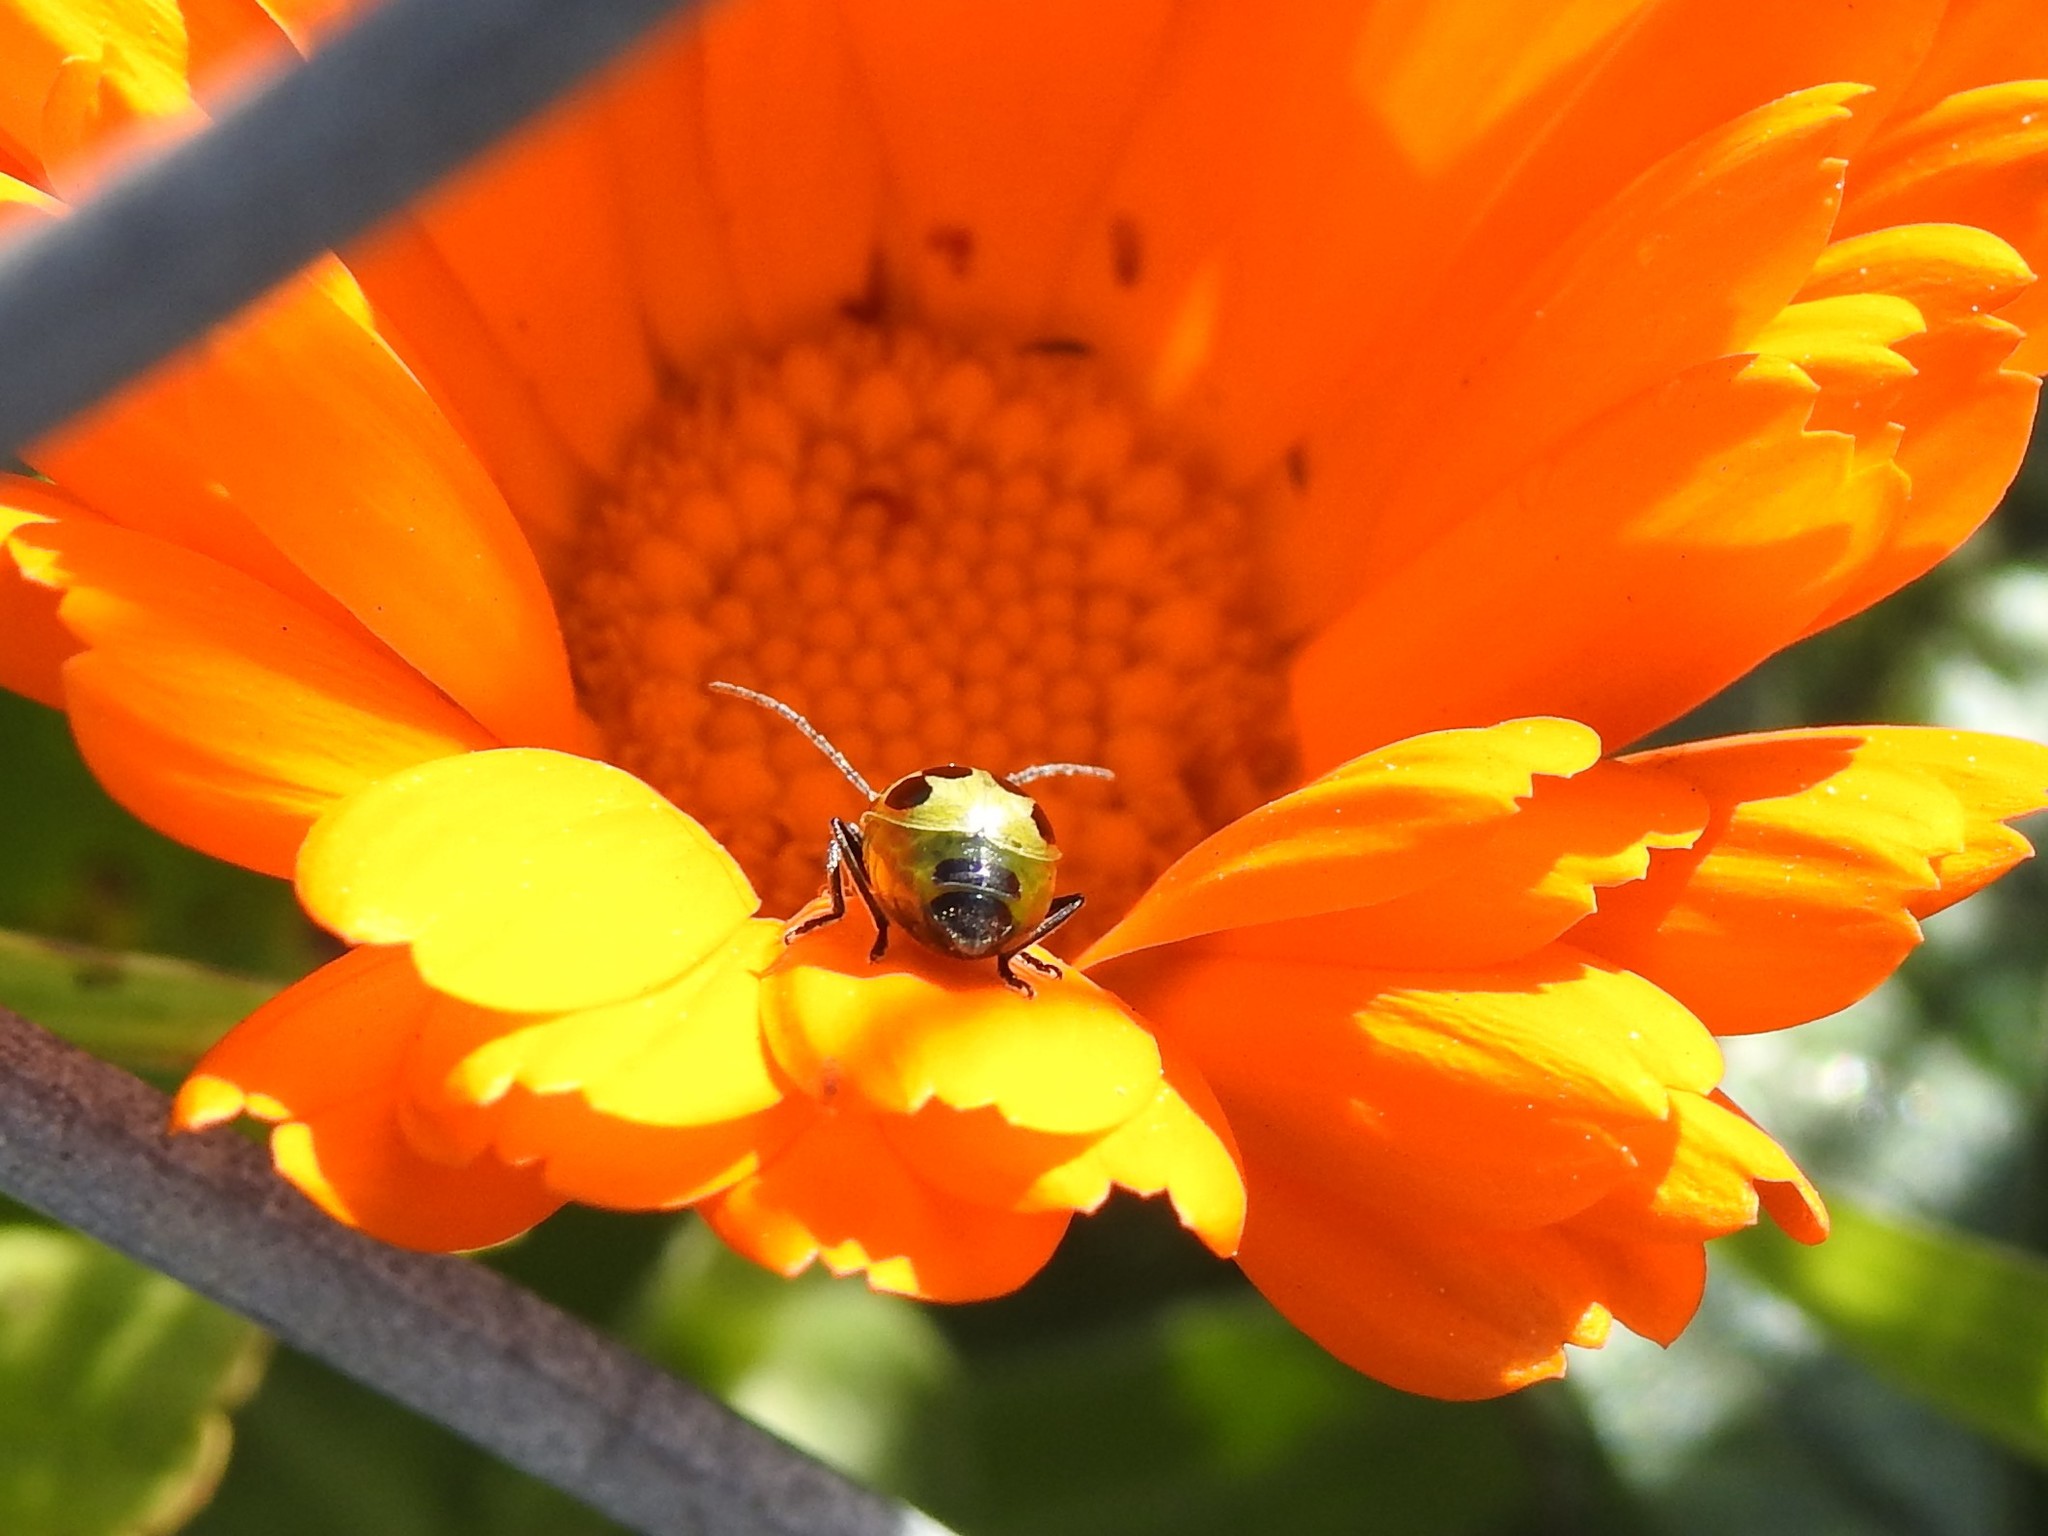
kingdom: Animalia
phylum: Arthropoda
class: Insecta
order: Coleoptera
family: Chrysomelidae
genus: Diabrotica
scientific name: Diabrotica undecimpunctata
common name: Spotted cucumber beetle
